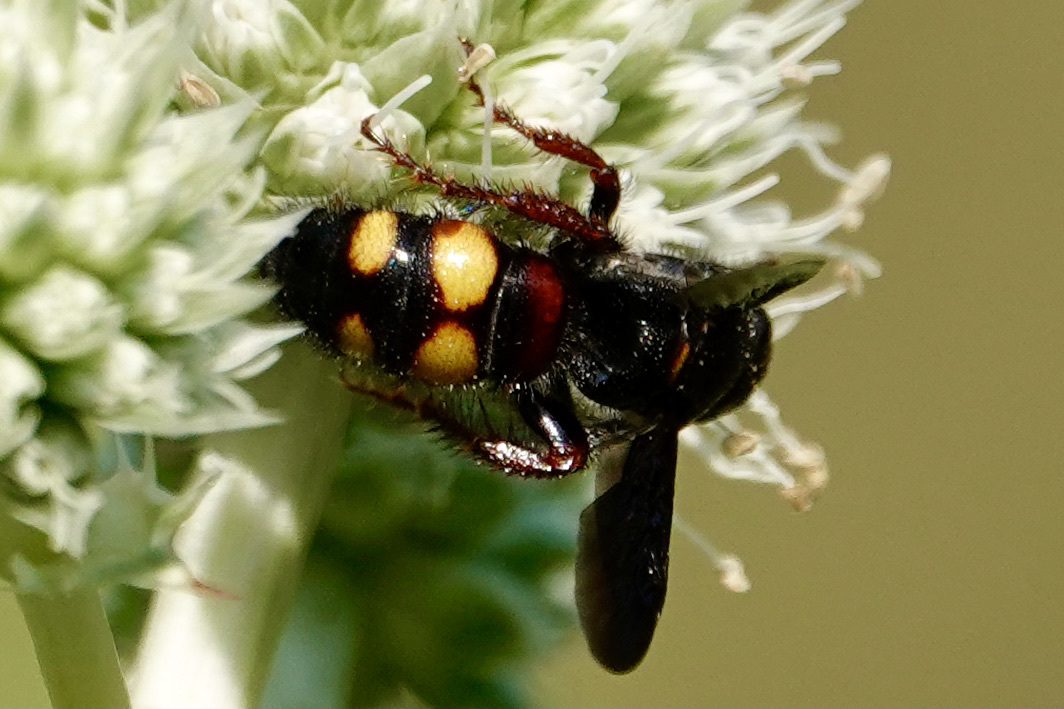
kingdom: Animalia
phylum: Arthropoda
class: Insecta
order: Hymenoptera
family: Scoliidae
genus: Scolia
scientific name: Scolia nobilitata
